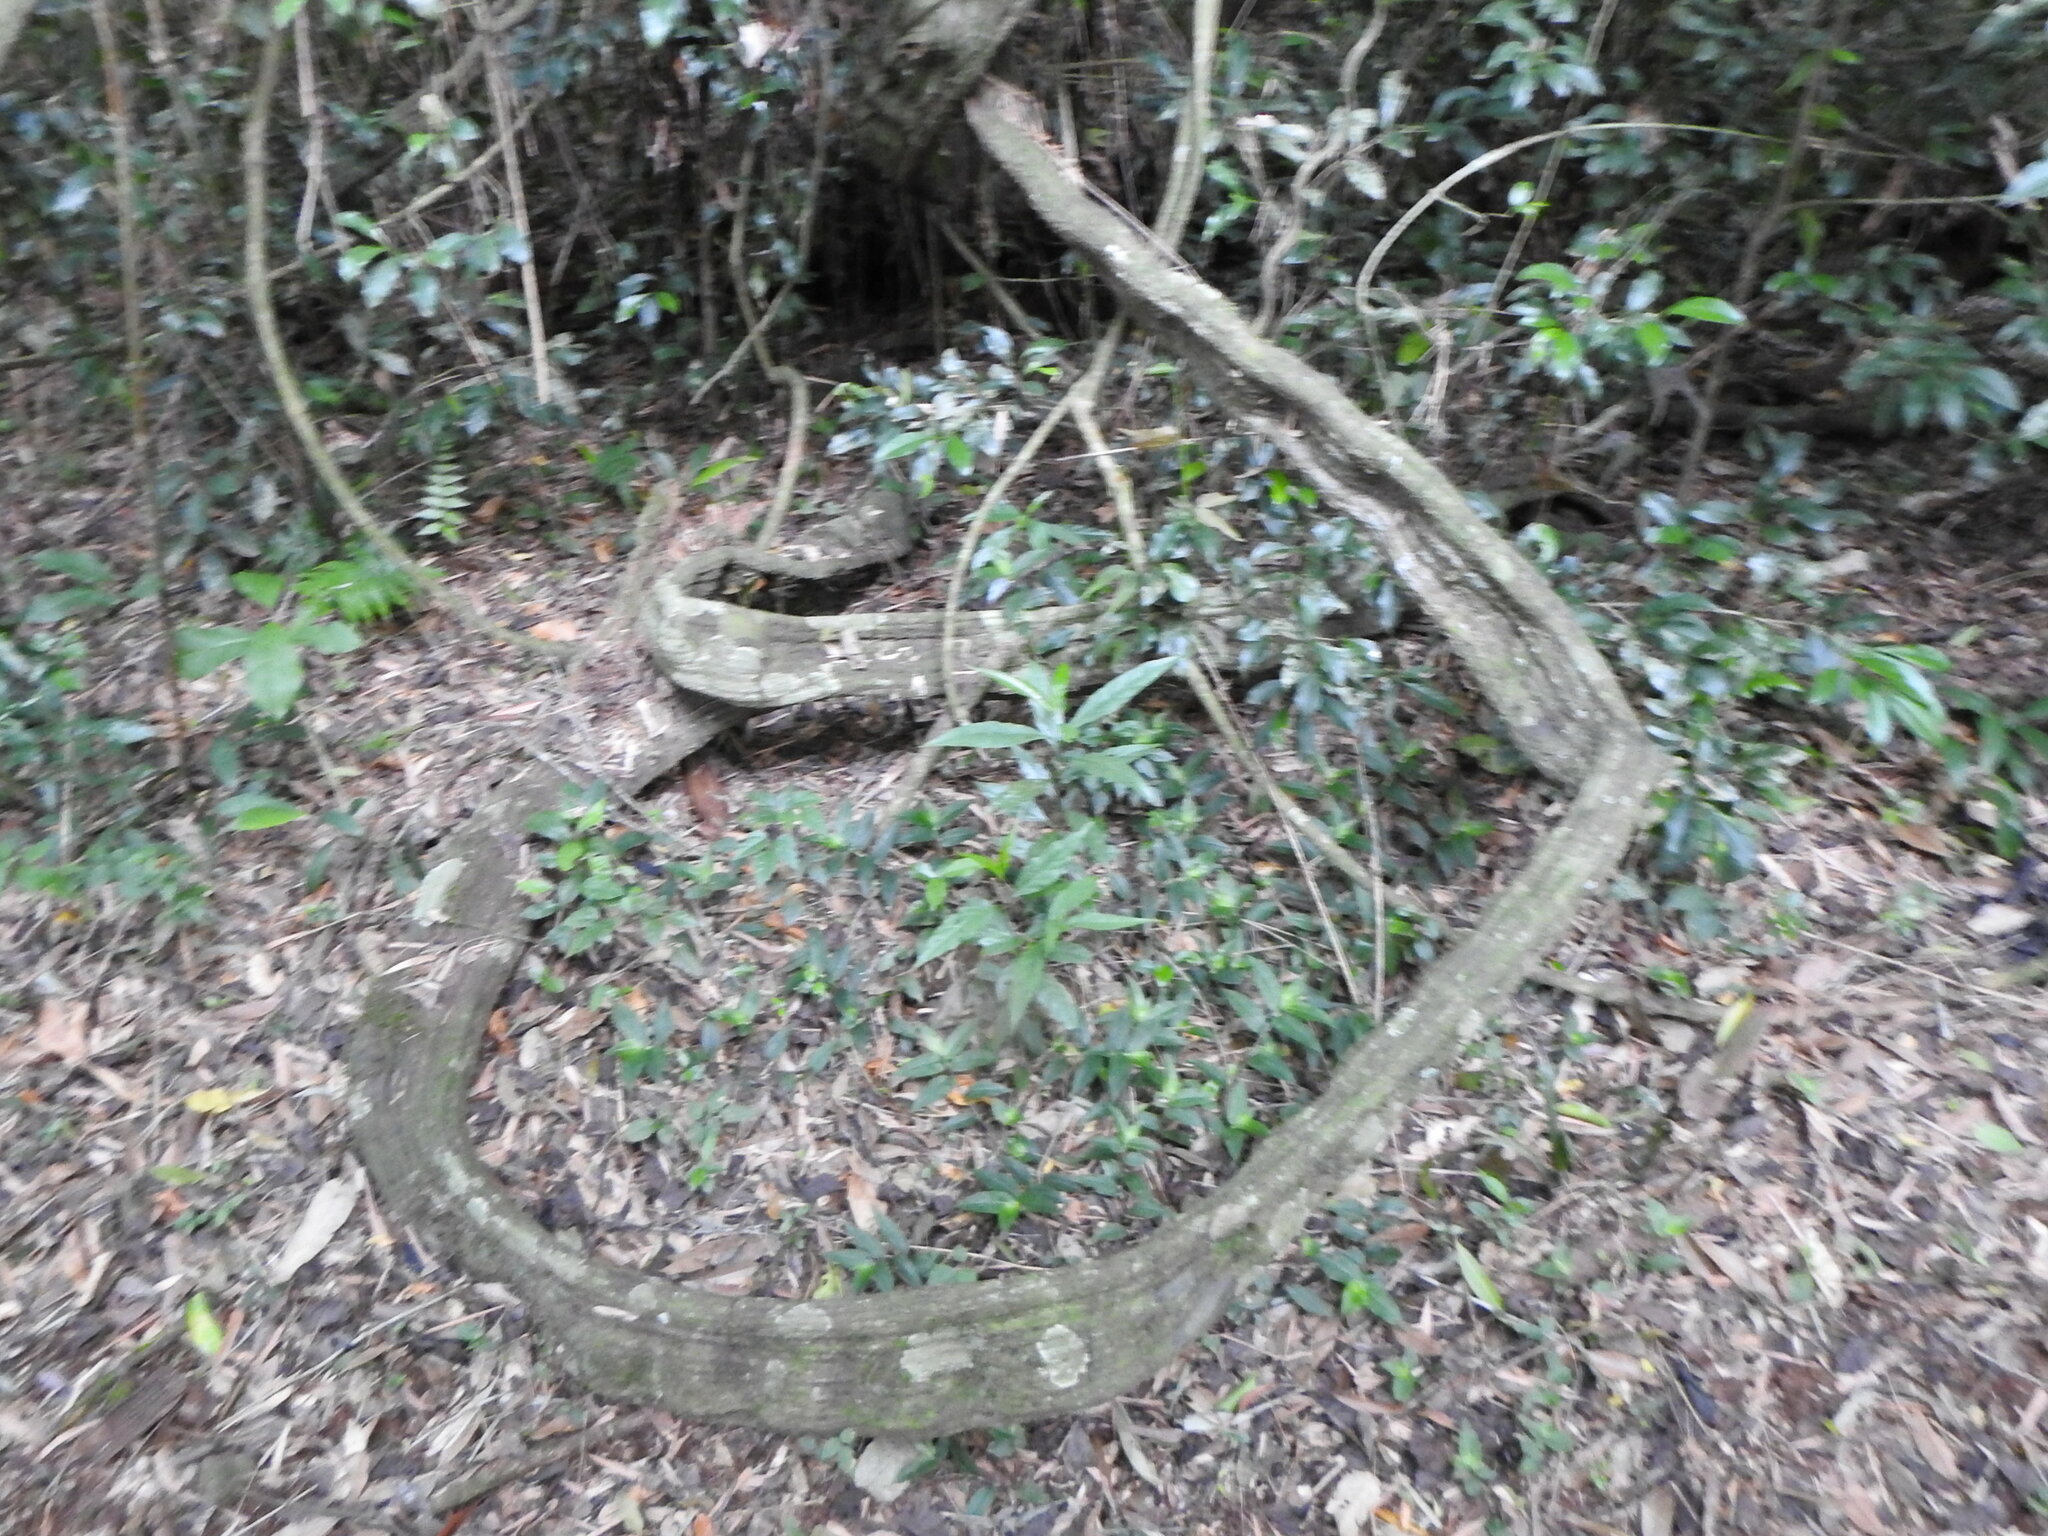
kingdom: Plantae
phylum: Tracheophyta
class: Magnoliopsida
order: Fabales
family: Fabaceae
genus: Schnella
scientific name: Schnella microstachya
